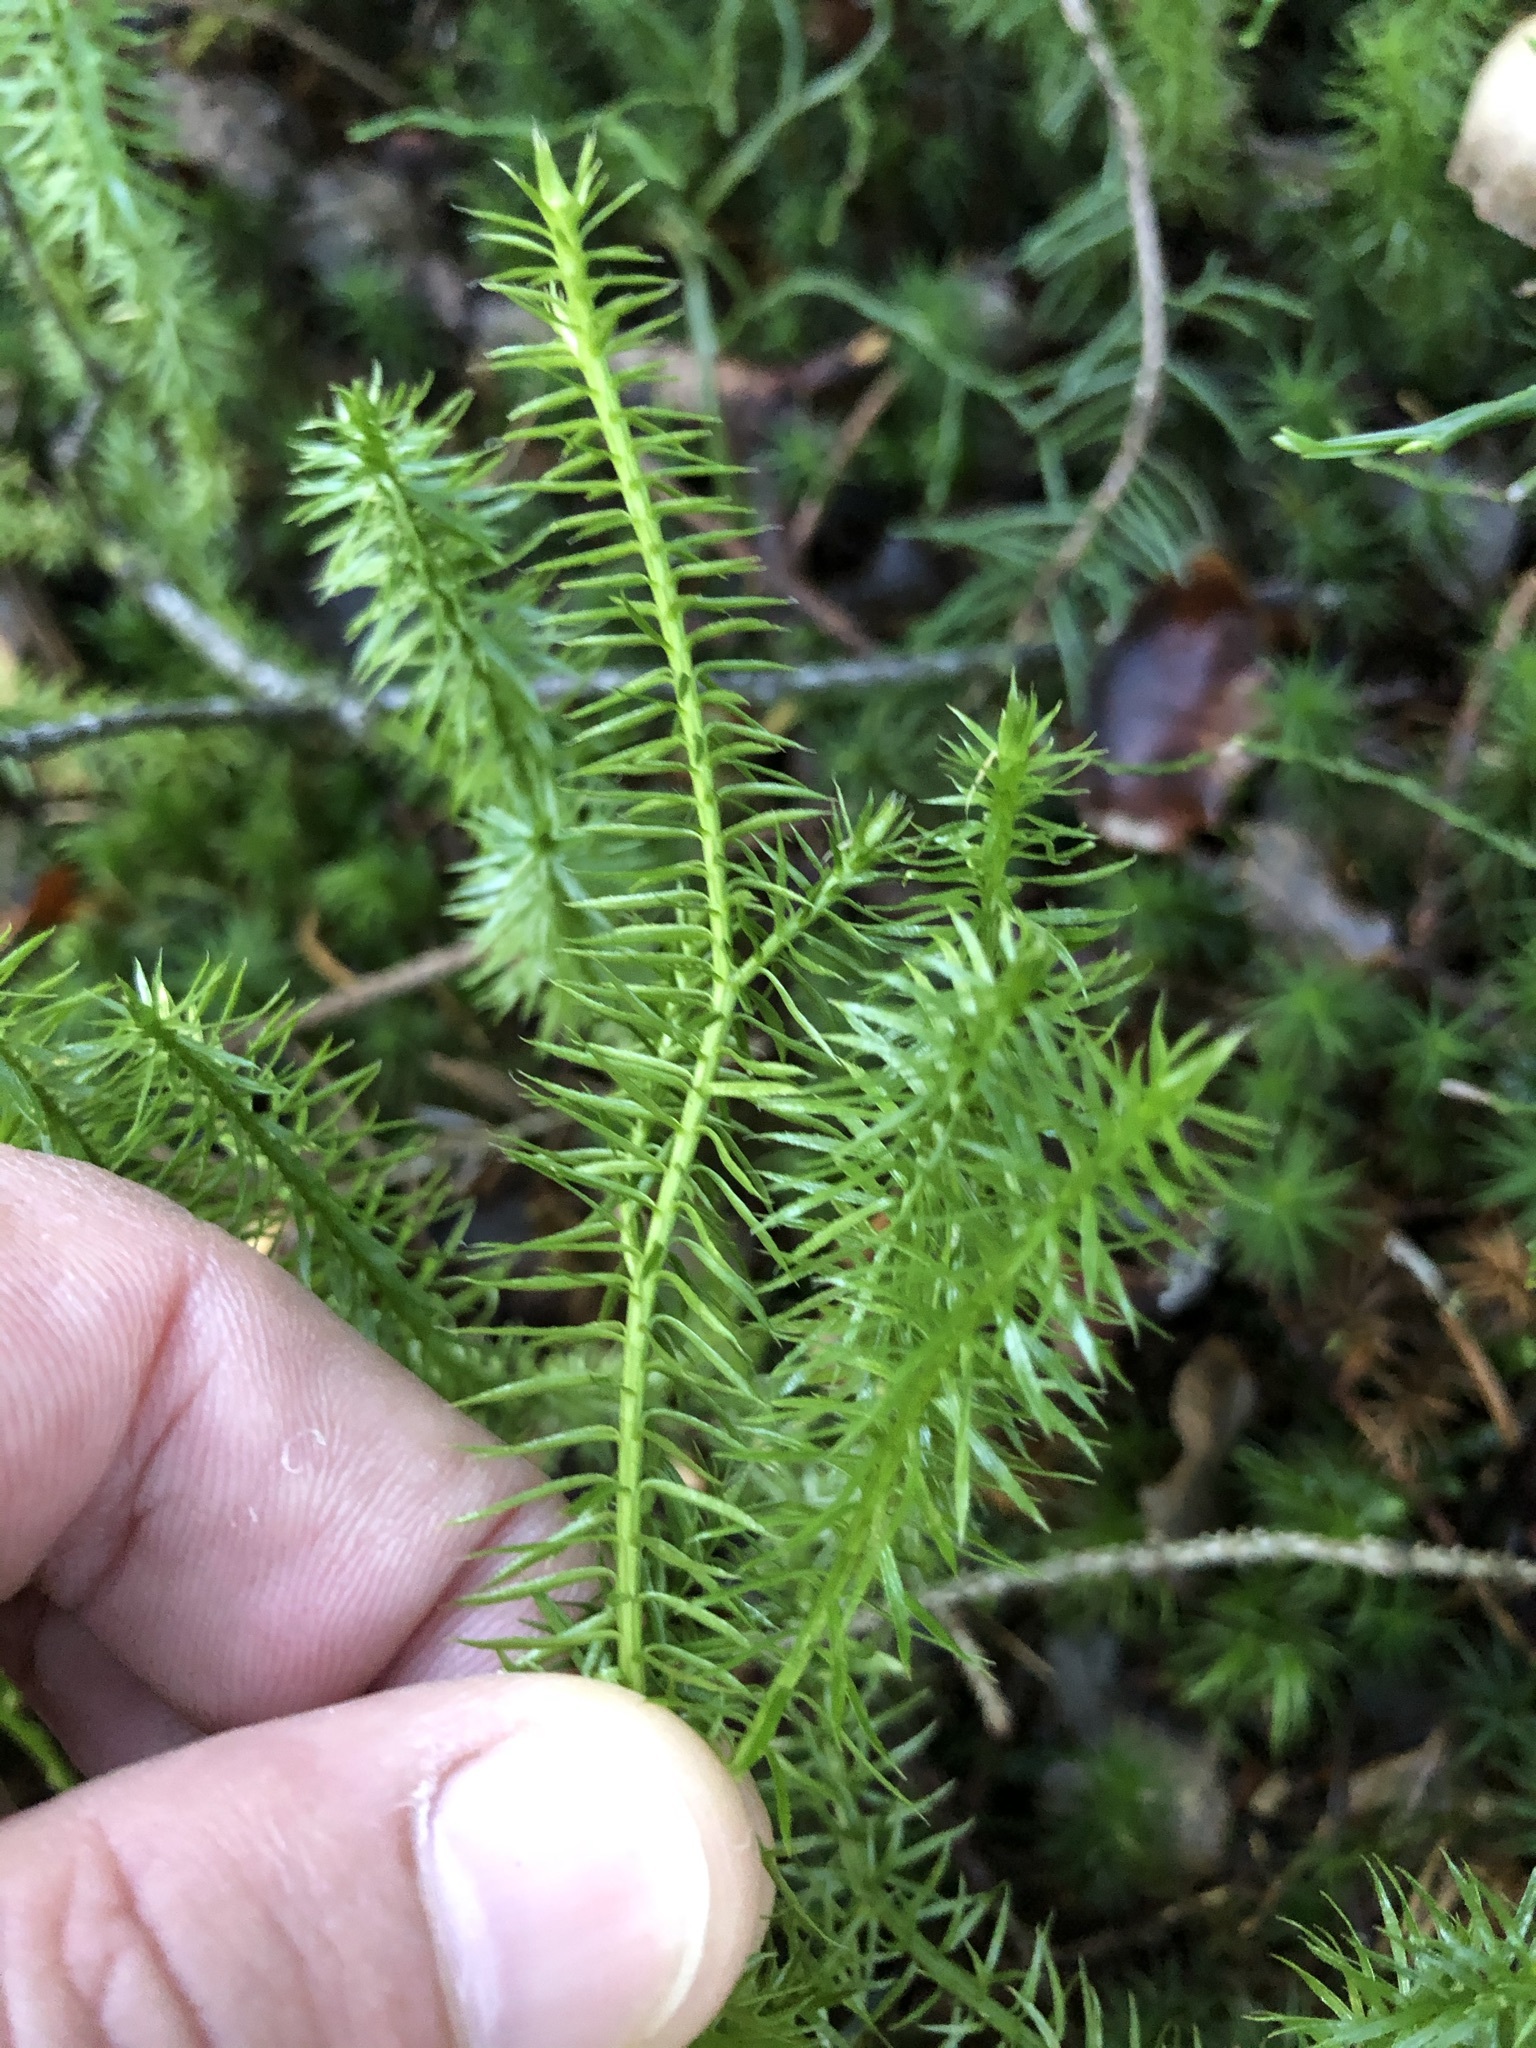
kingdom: Plantae
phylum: Tracheophyta
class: Lycopodiopsida
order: Lycopodiales
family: Lycopodiaceae
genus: Spinulum
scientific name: Spinulum annotinum
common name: Interrupted club-moss
